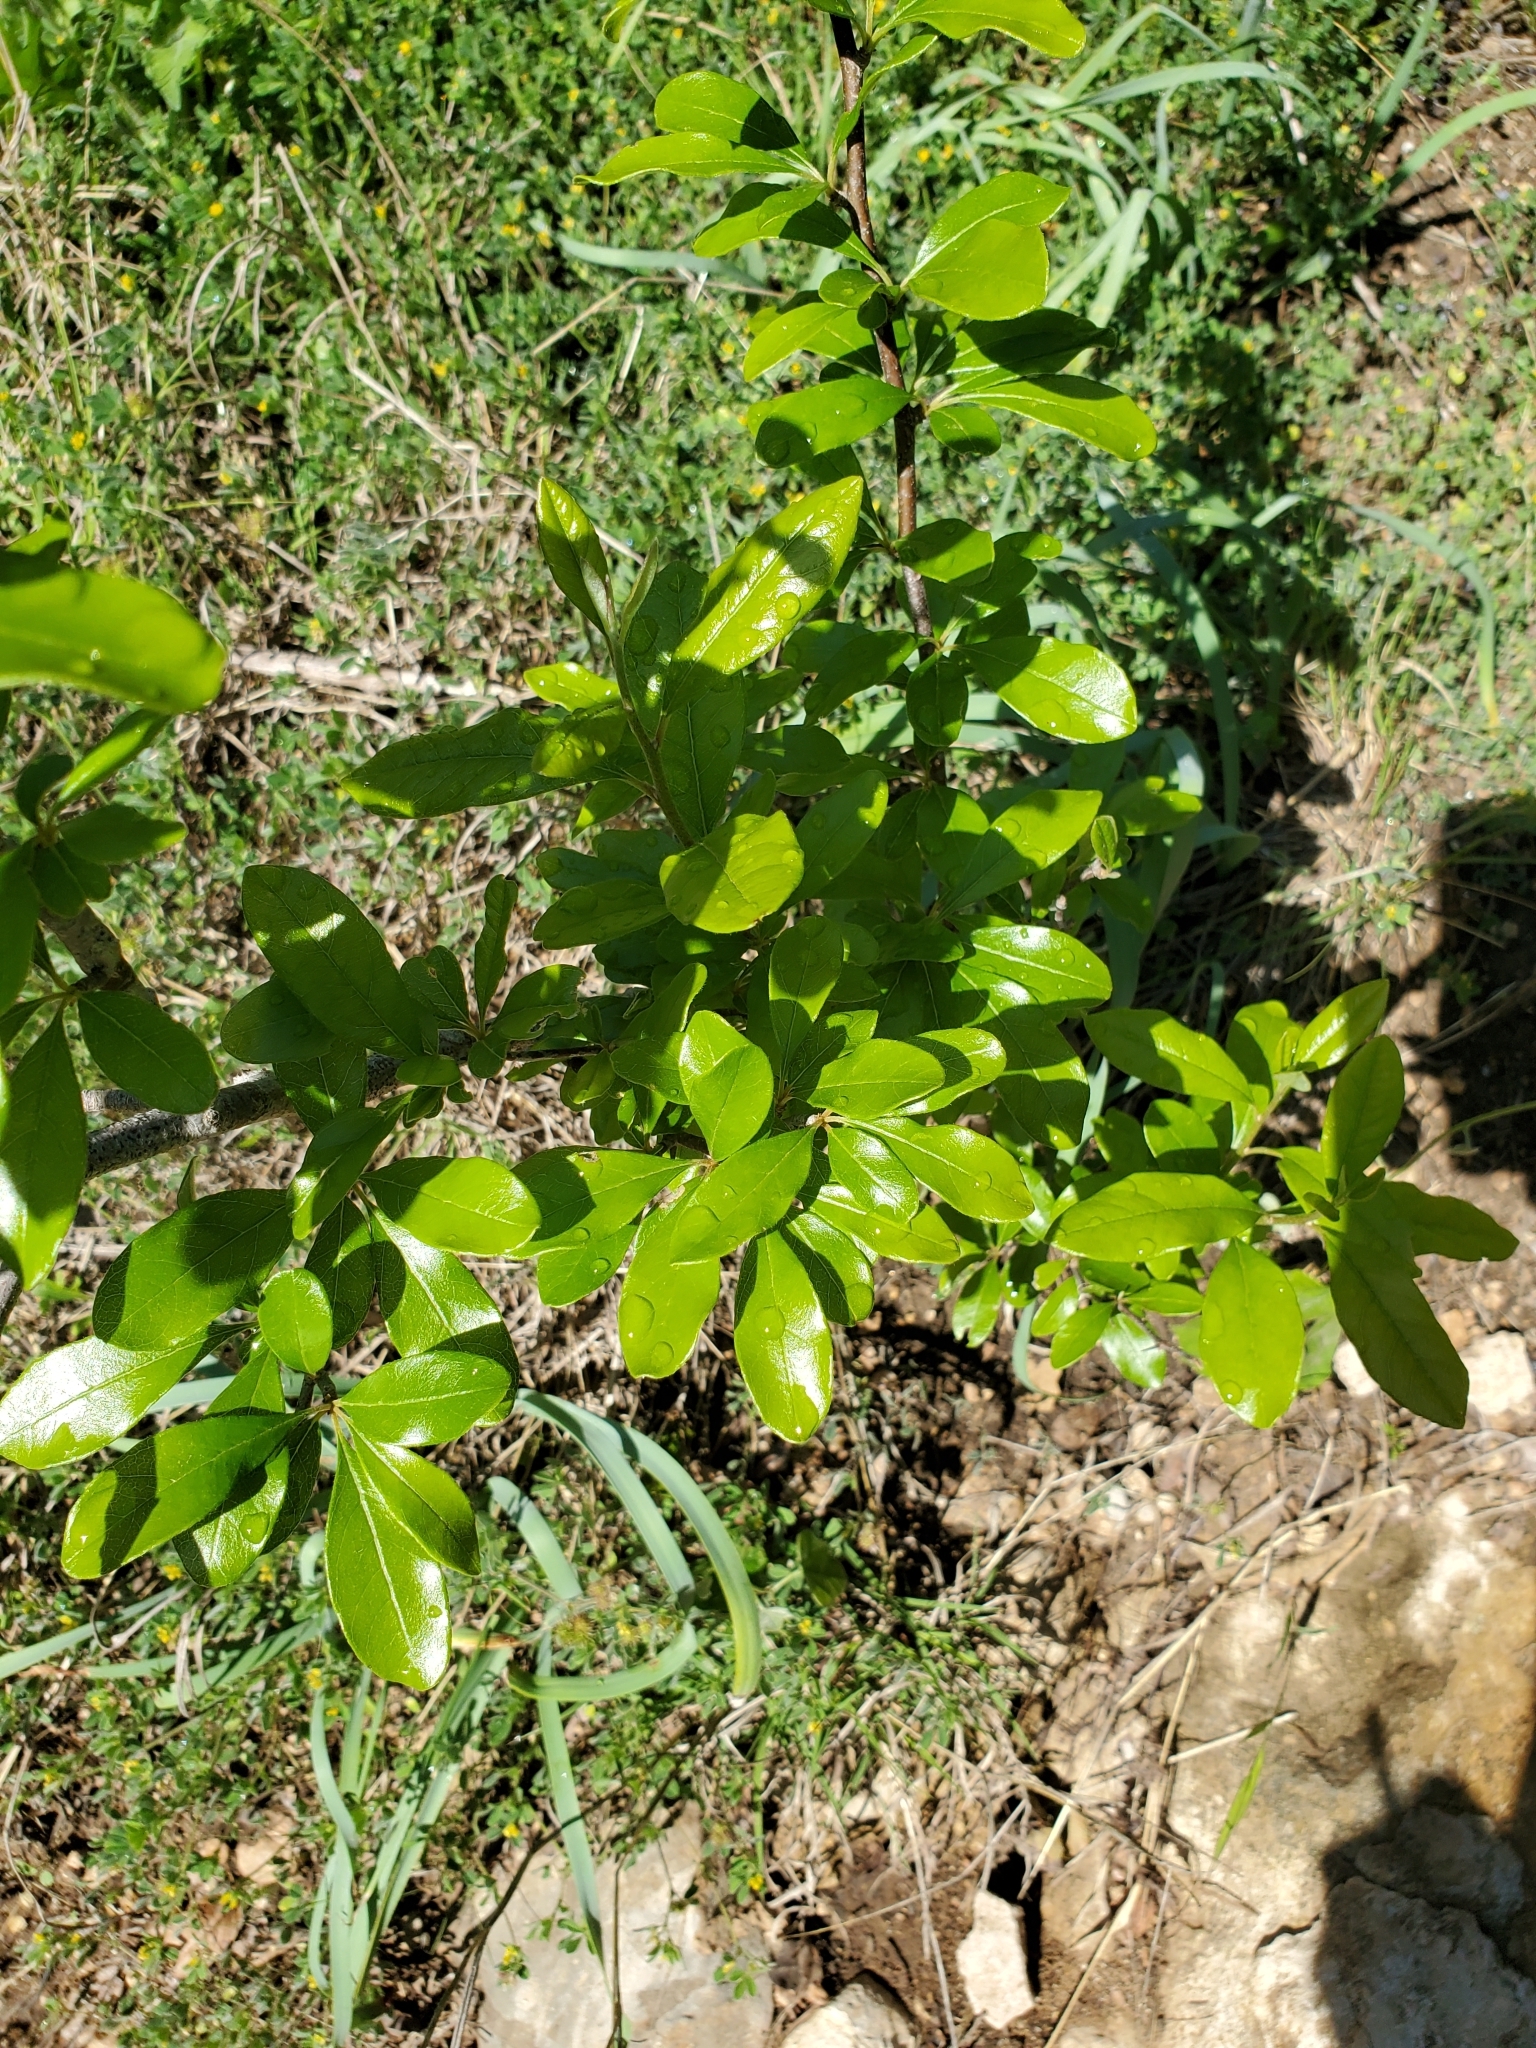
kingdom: Plantae
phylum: Tracheophyta
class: Magnoliopsida
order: Ericales
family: Sapotaceae
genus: Sideroxylon
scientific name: Sideroxylon lanuginosum
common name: Chittamwood
